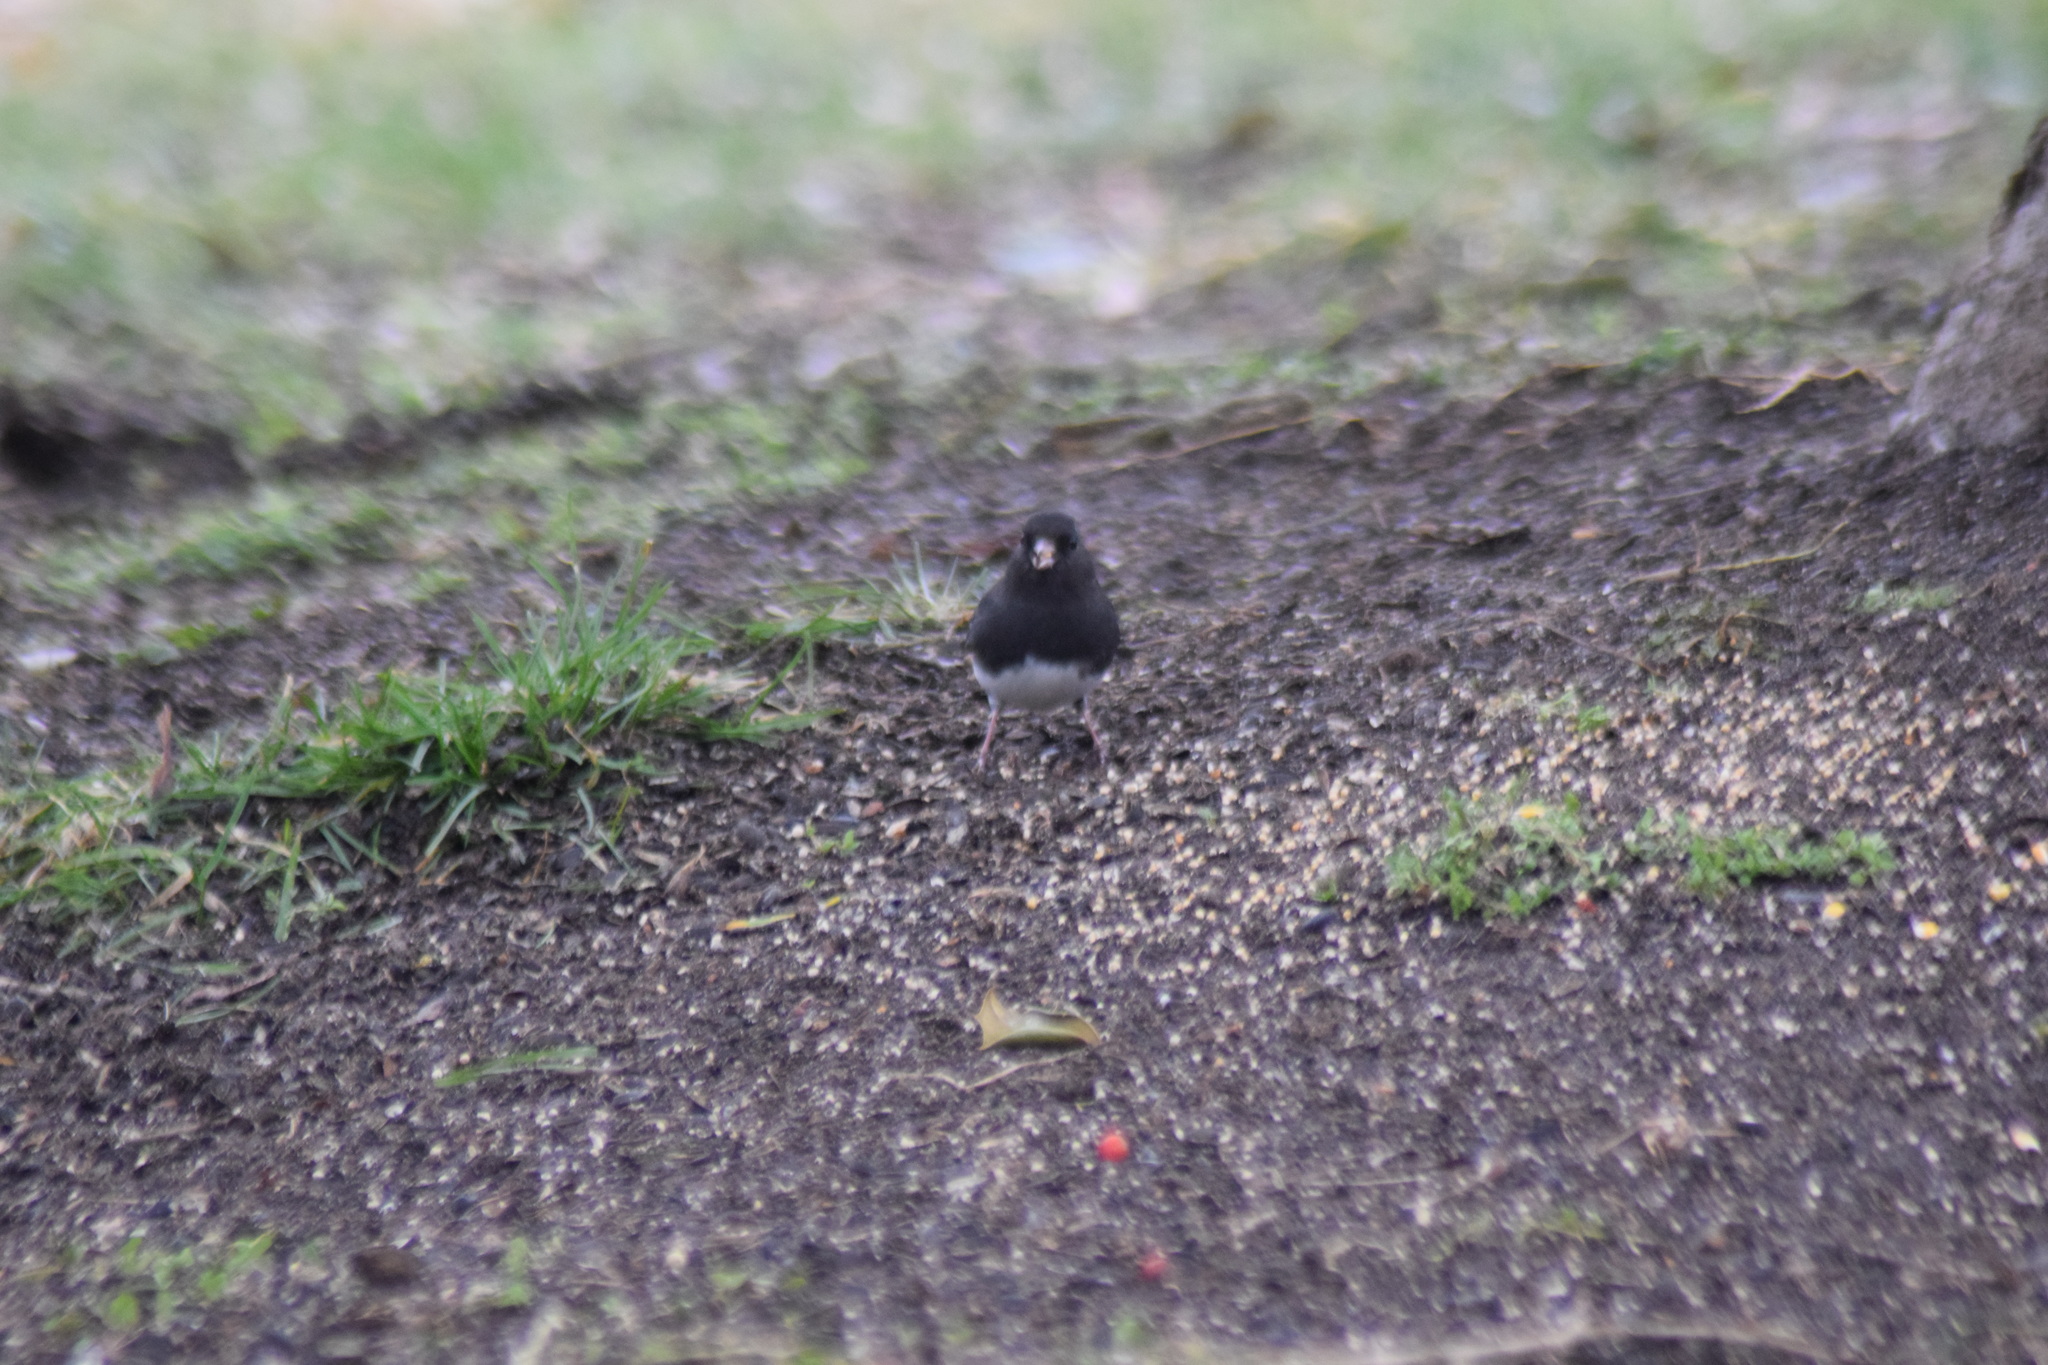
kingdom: Animalia
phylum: Chordata
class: Aves
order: Passeriformes
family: Passerellidae
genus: Junco
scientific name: Junco hyemalis
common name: Dark-eyed junco
